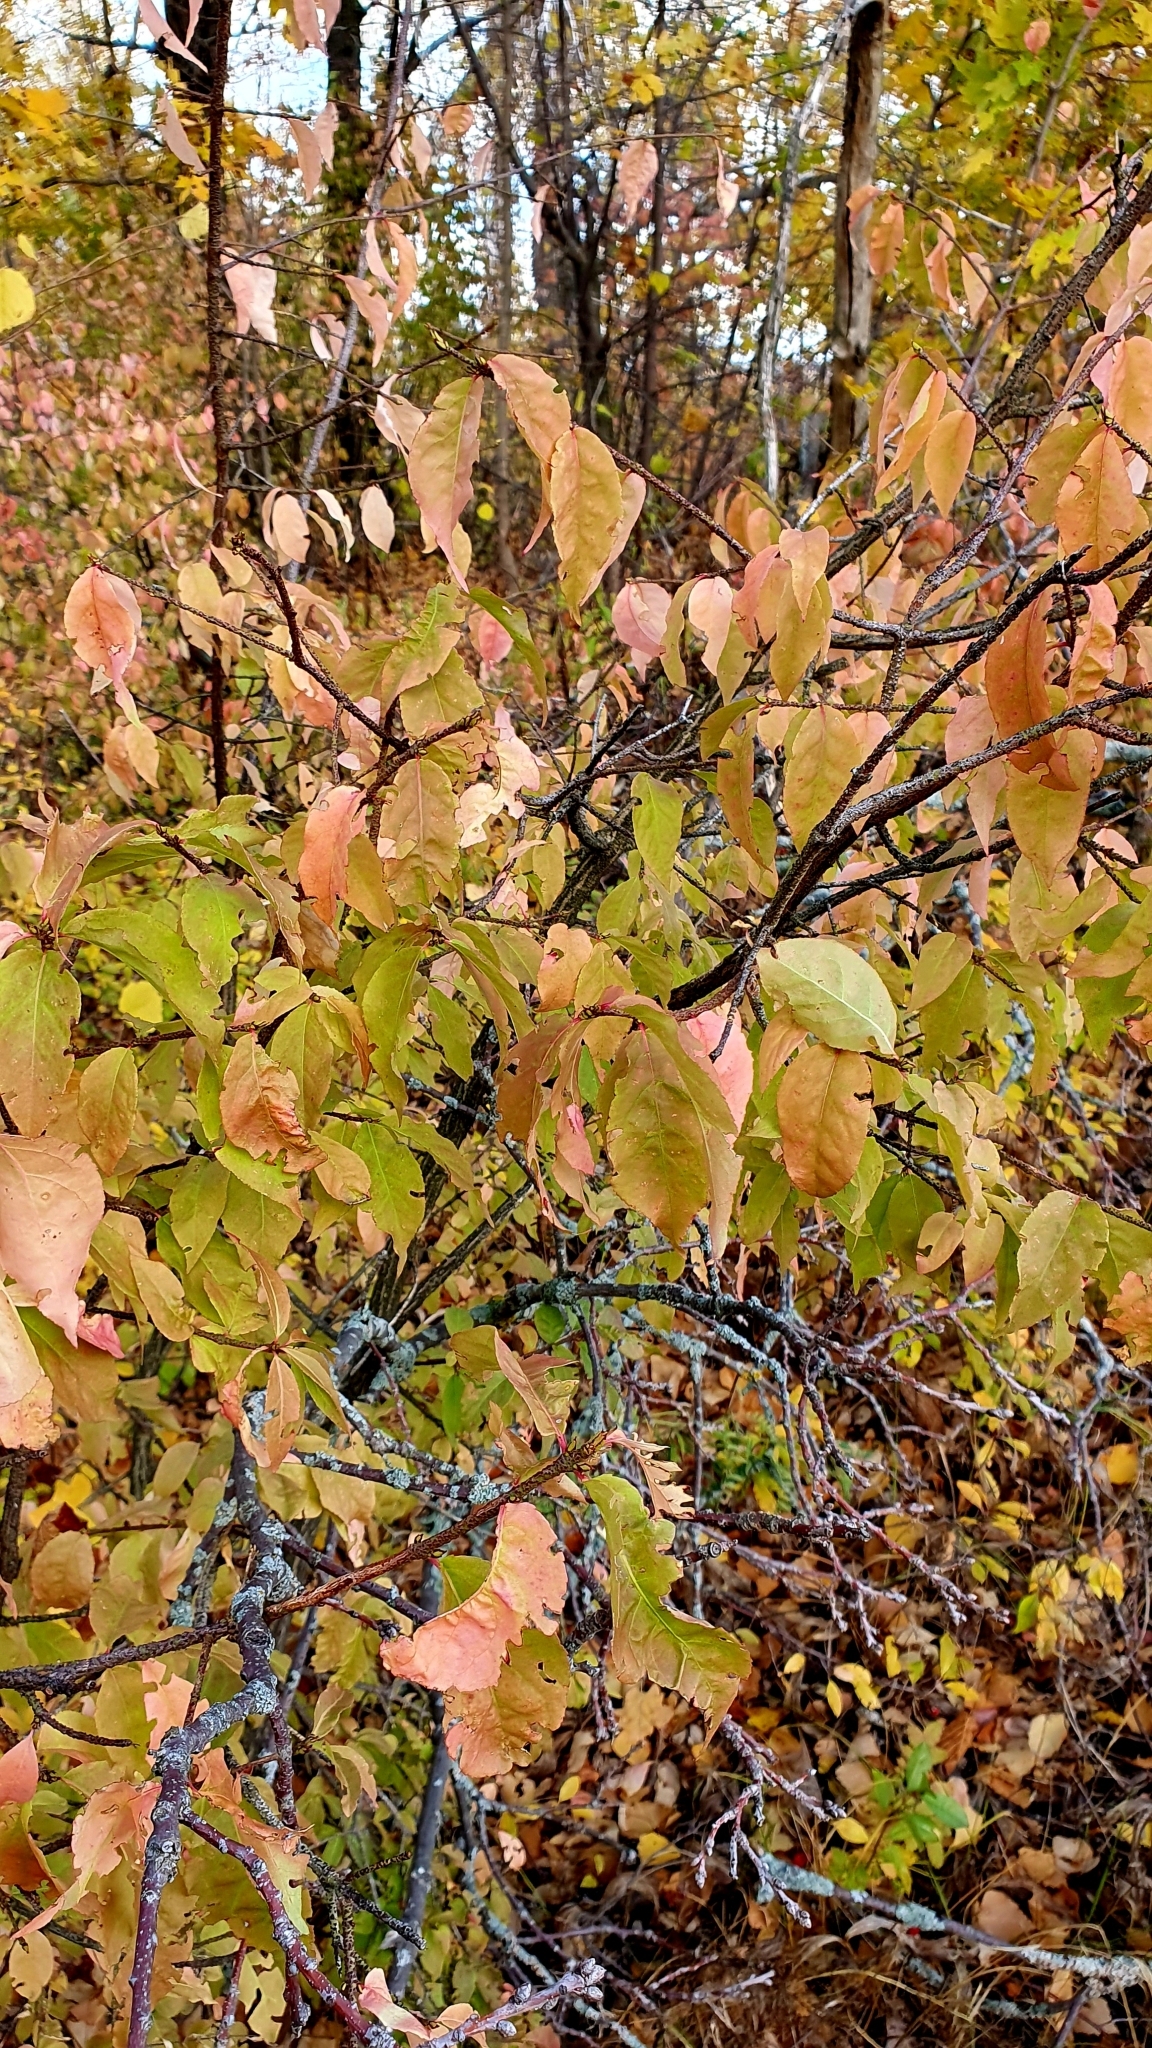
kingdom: Plantae
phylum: Tracheophyta
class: Magnoliopsida
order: Celastrales
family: Celastraceae
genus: Euonymus
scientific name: Euonymus verrucosus
